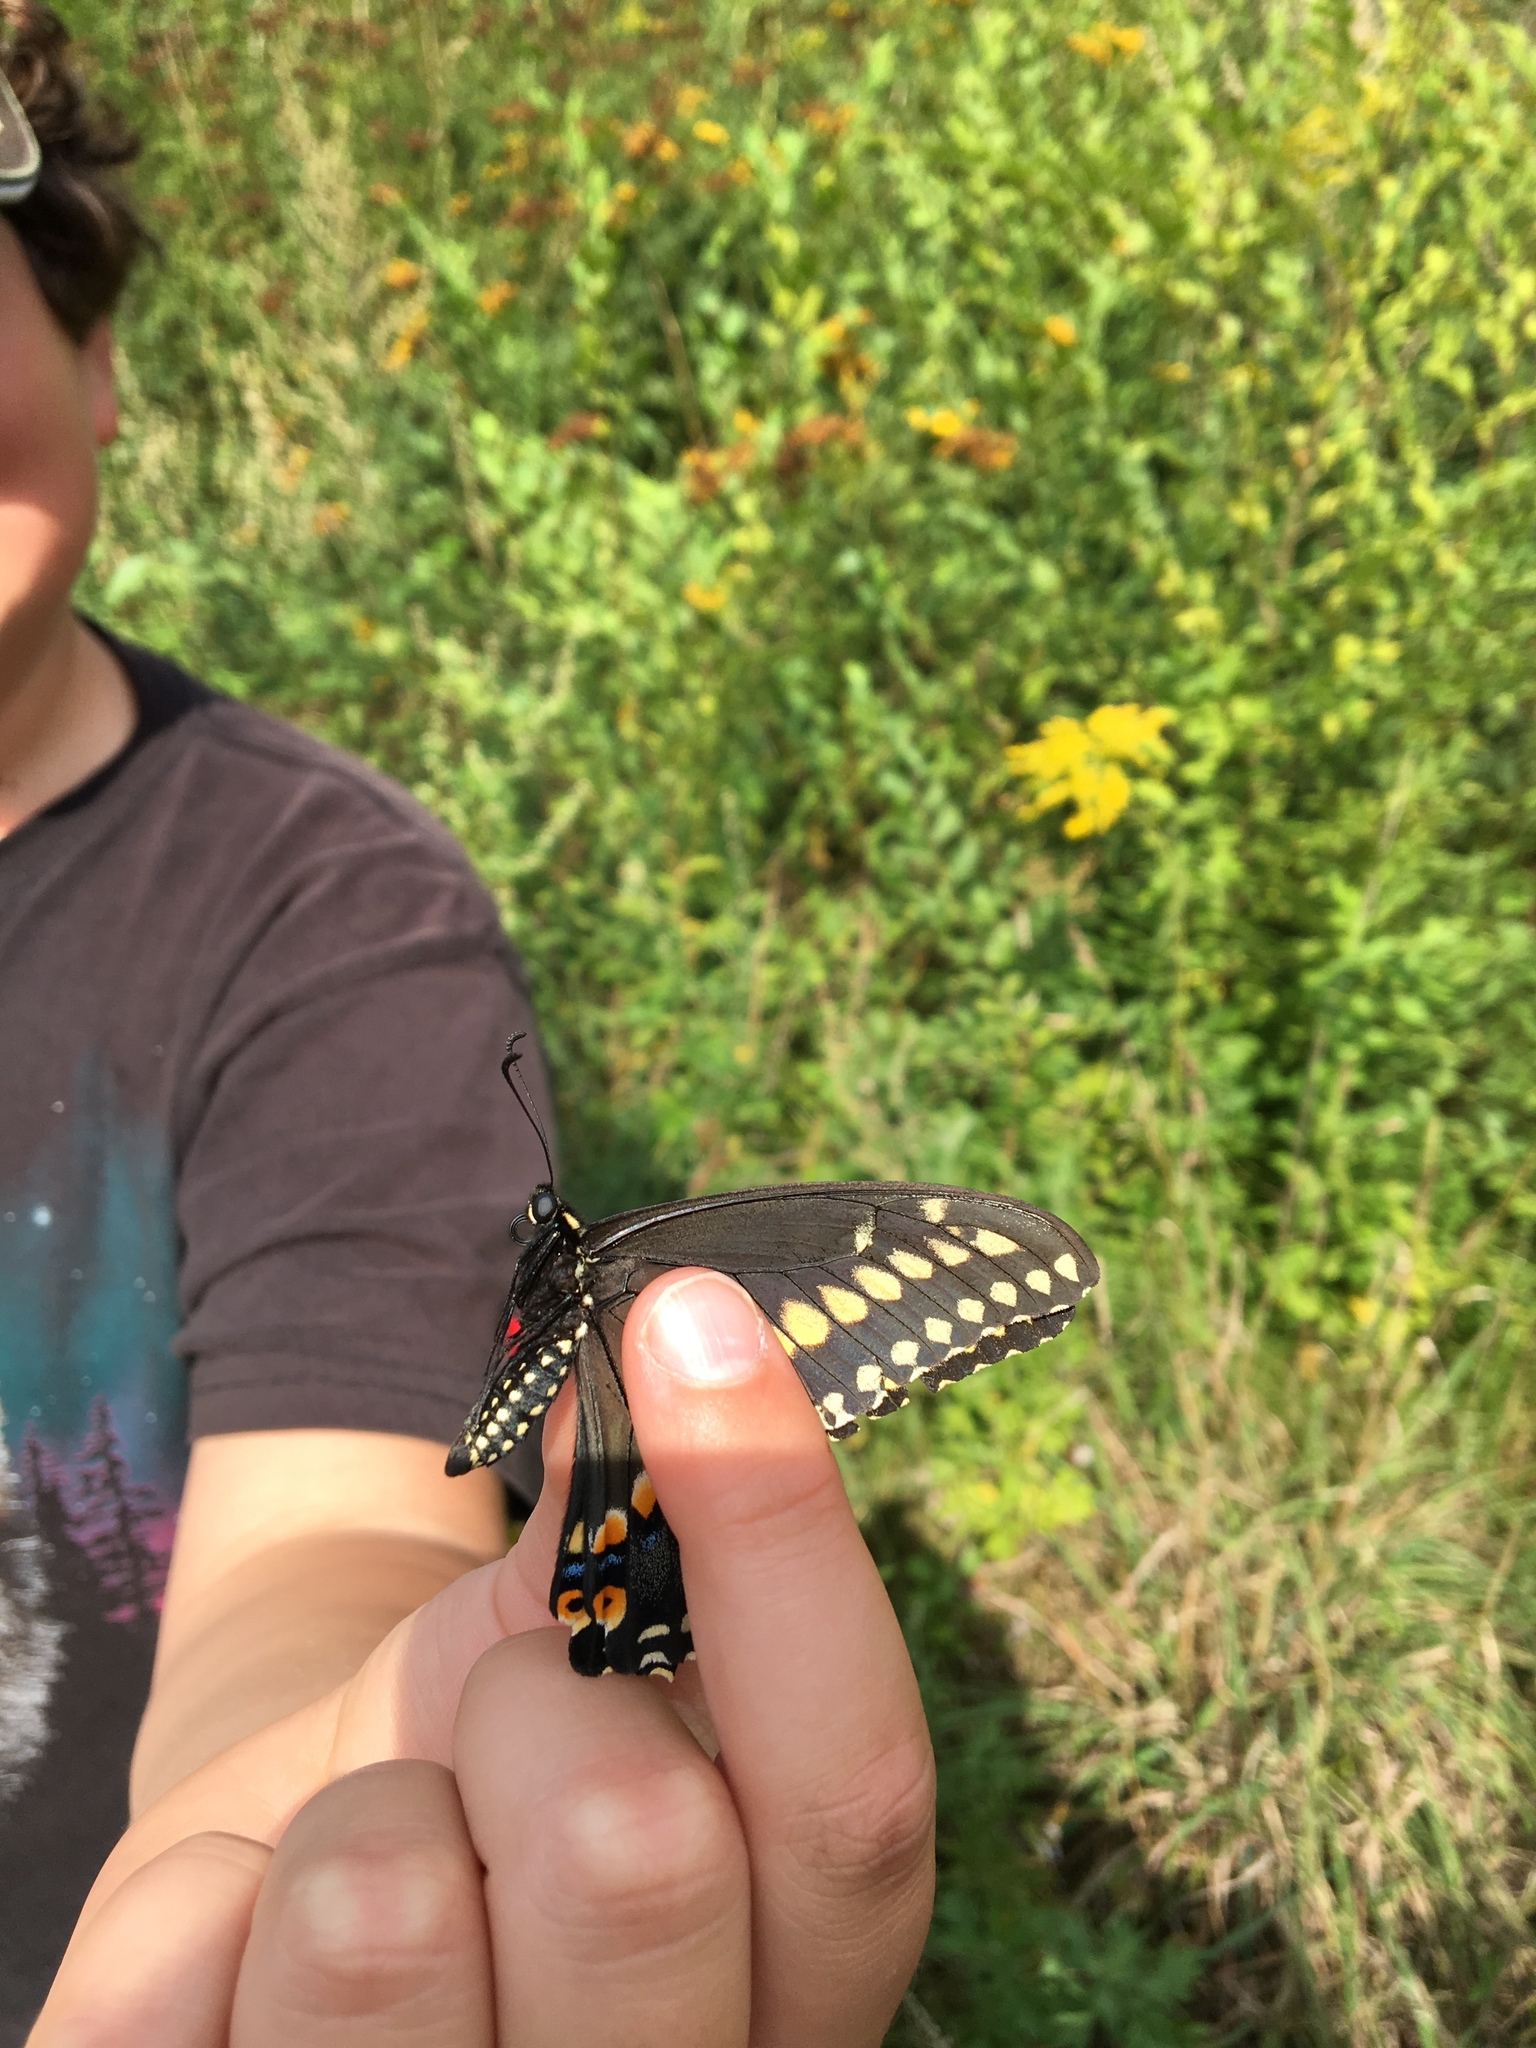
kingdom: Animalia
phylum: Arthropoda
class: Insecta
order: Lepidoptera
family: Papilionidae
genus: Papilio
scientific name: Papilio polyxenes
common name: Black swallowtail
